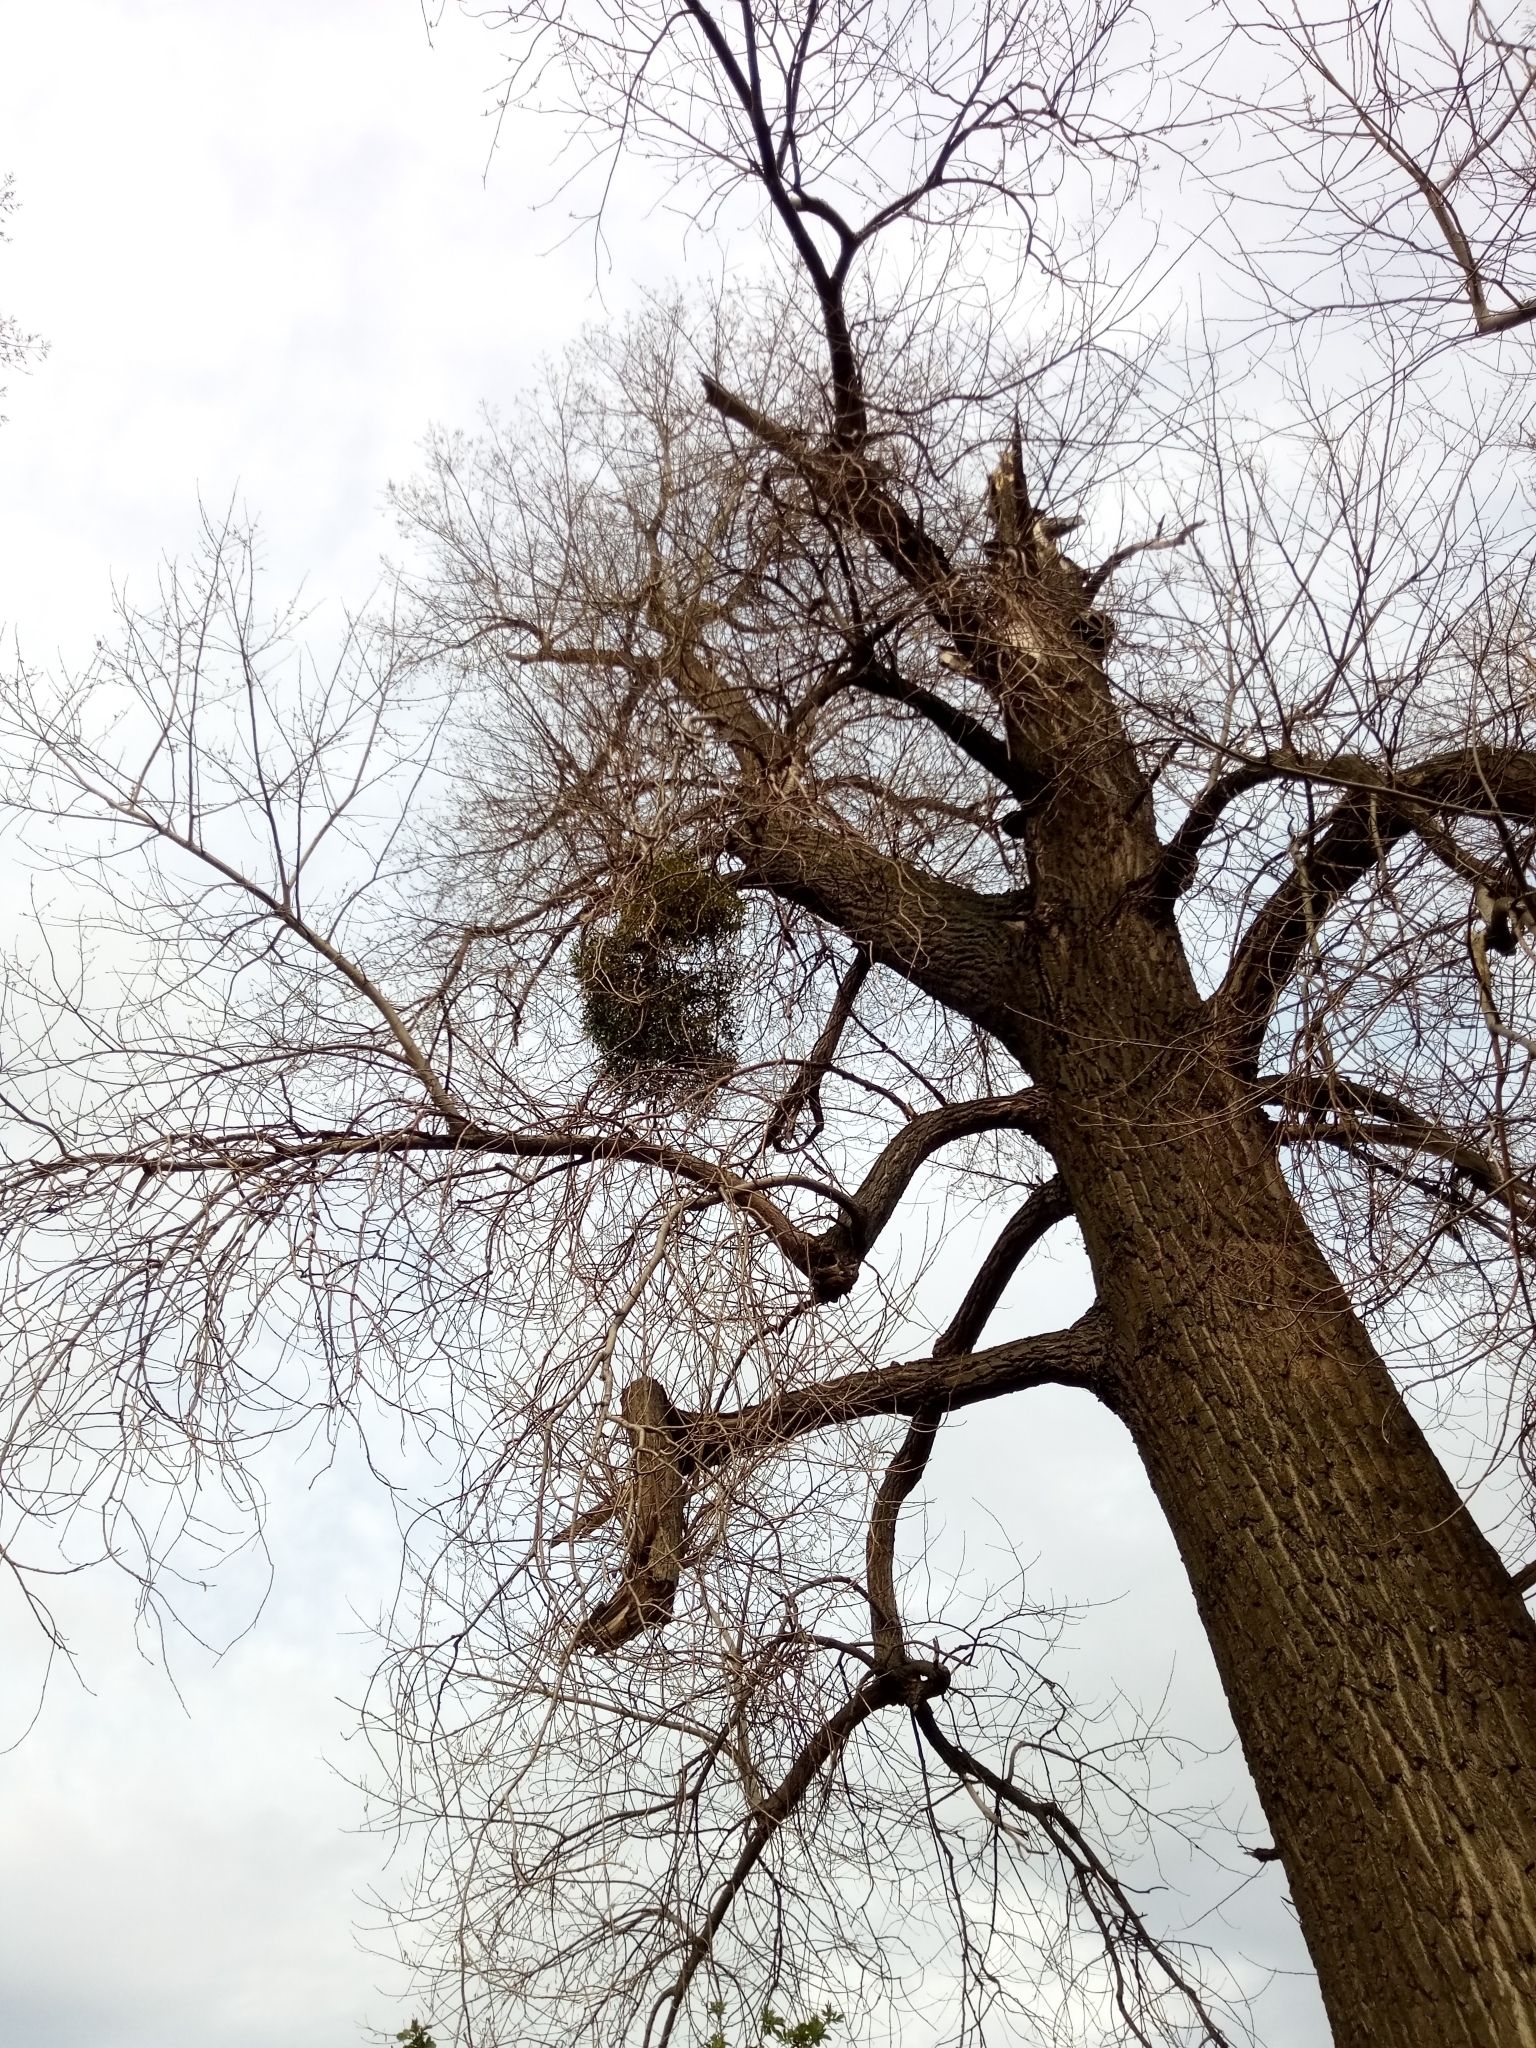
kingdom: Plantae
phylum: Tracheophyta
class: Magnoliopsida
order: Santalales
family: Viscaceae
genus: Viscum
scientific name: Viscum album
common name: Mistletoe
